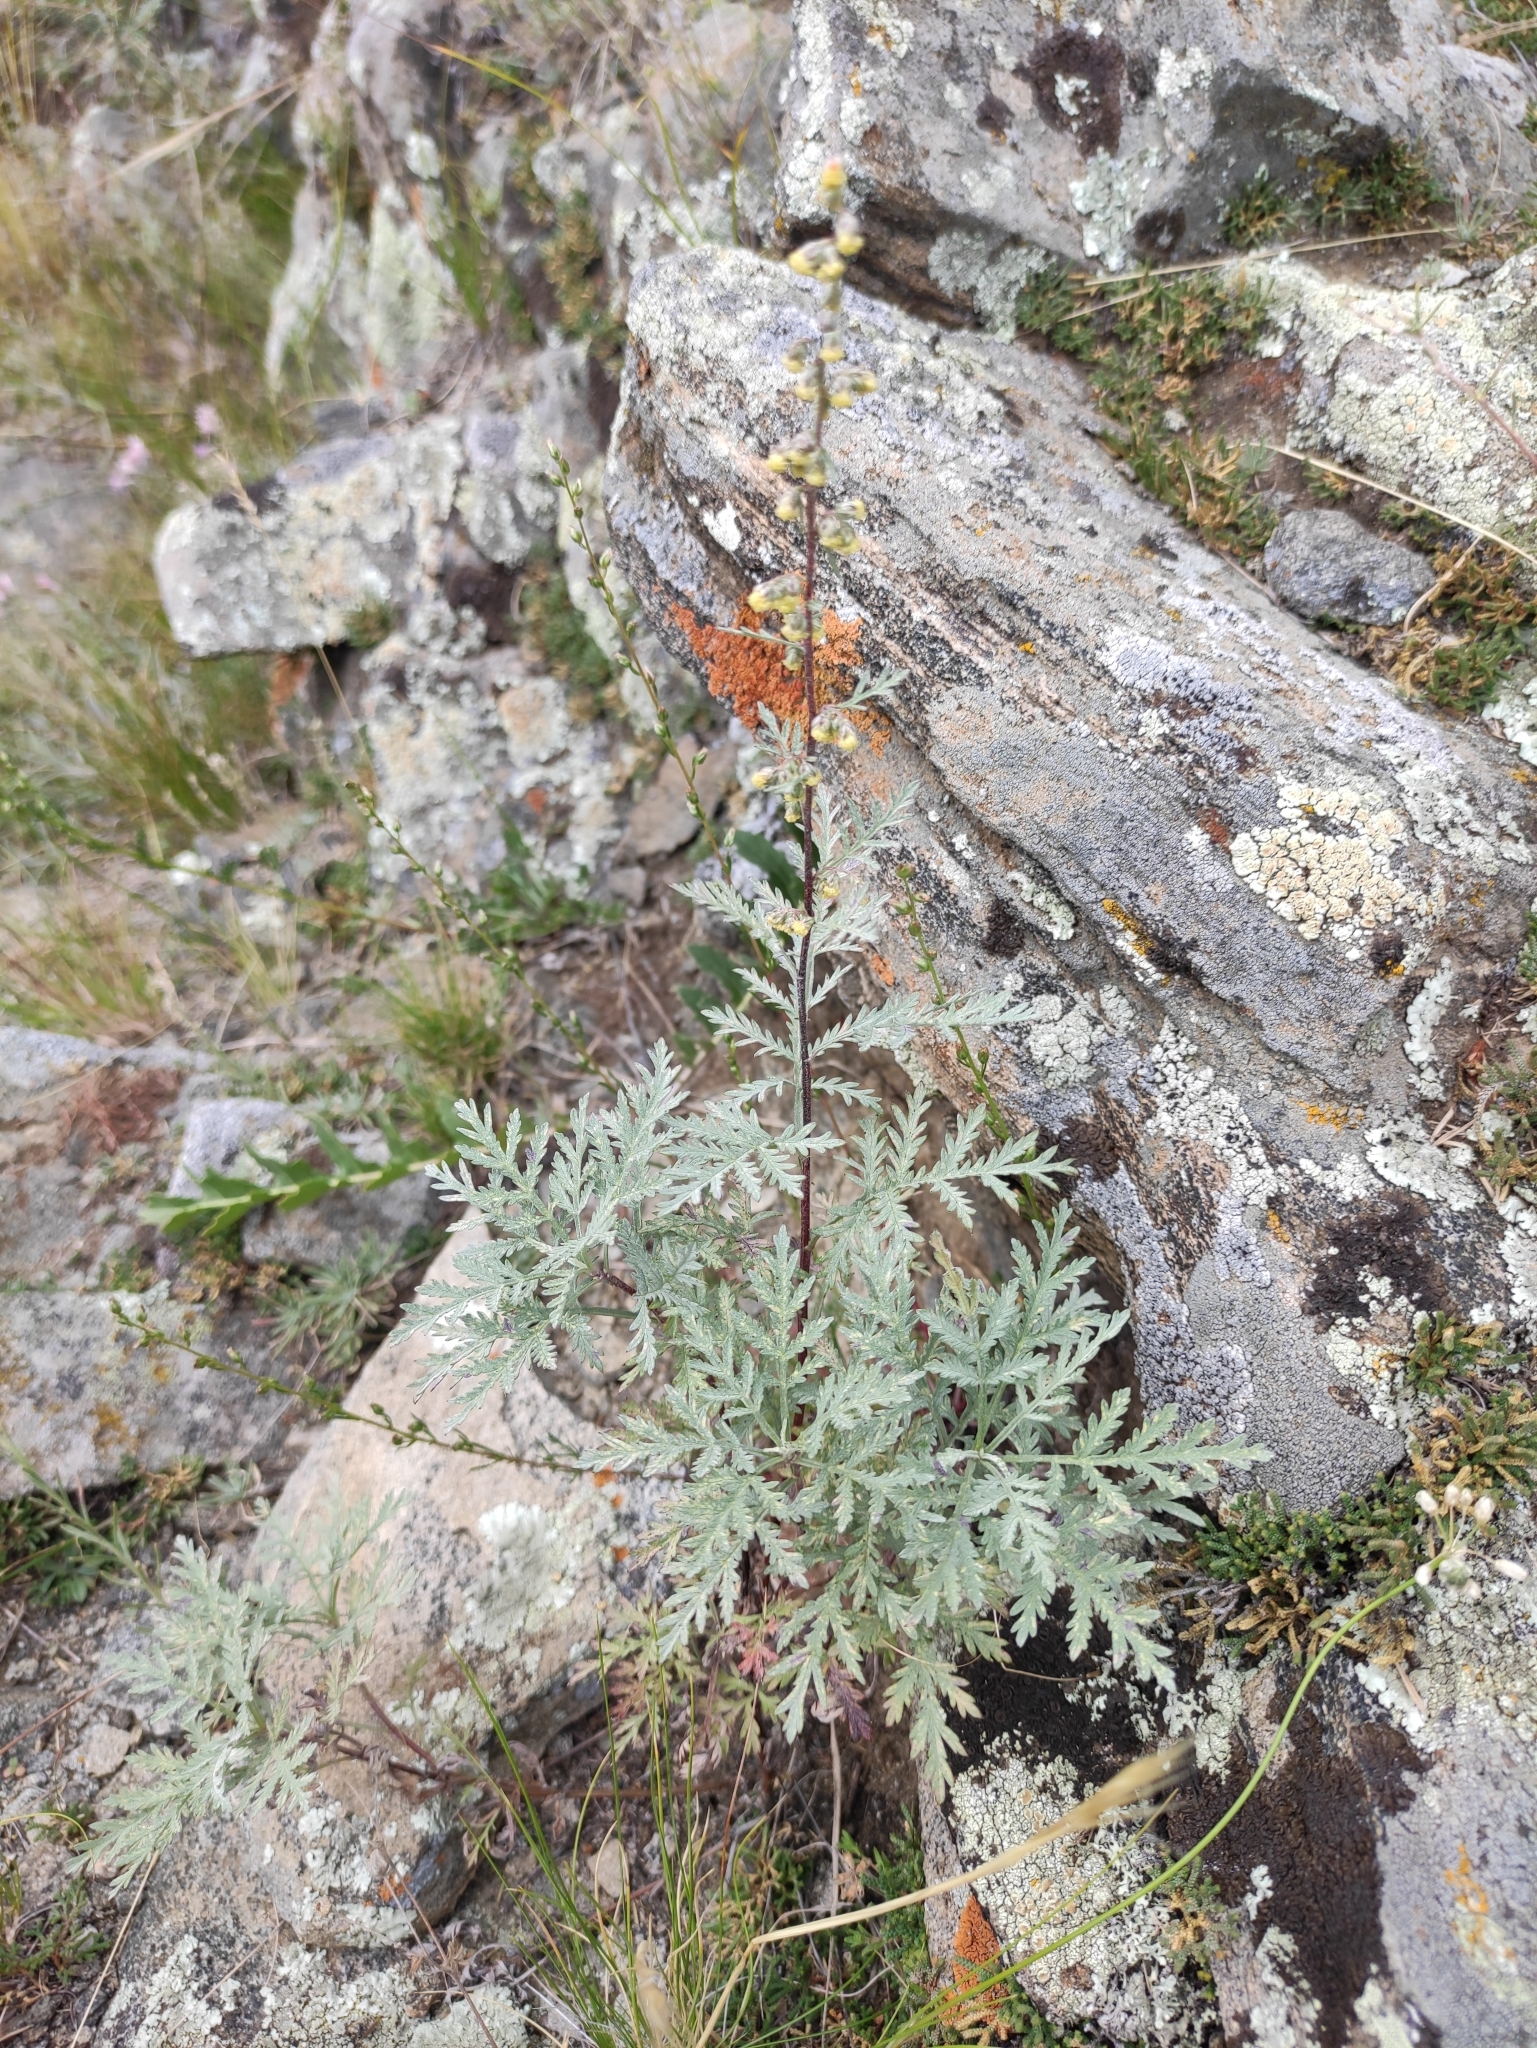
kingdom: Plantae
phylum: Tracheophyta
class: Magnoliopsida
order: Asterales
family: Asteraceae
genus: Artemisia
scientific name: Artemisia gmelinii
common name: Gmelin's wormwood
